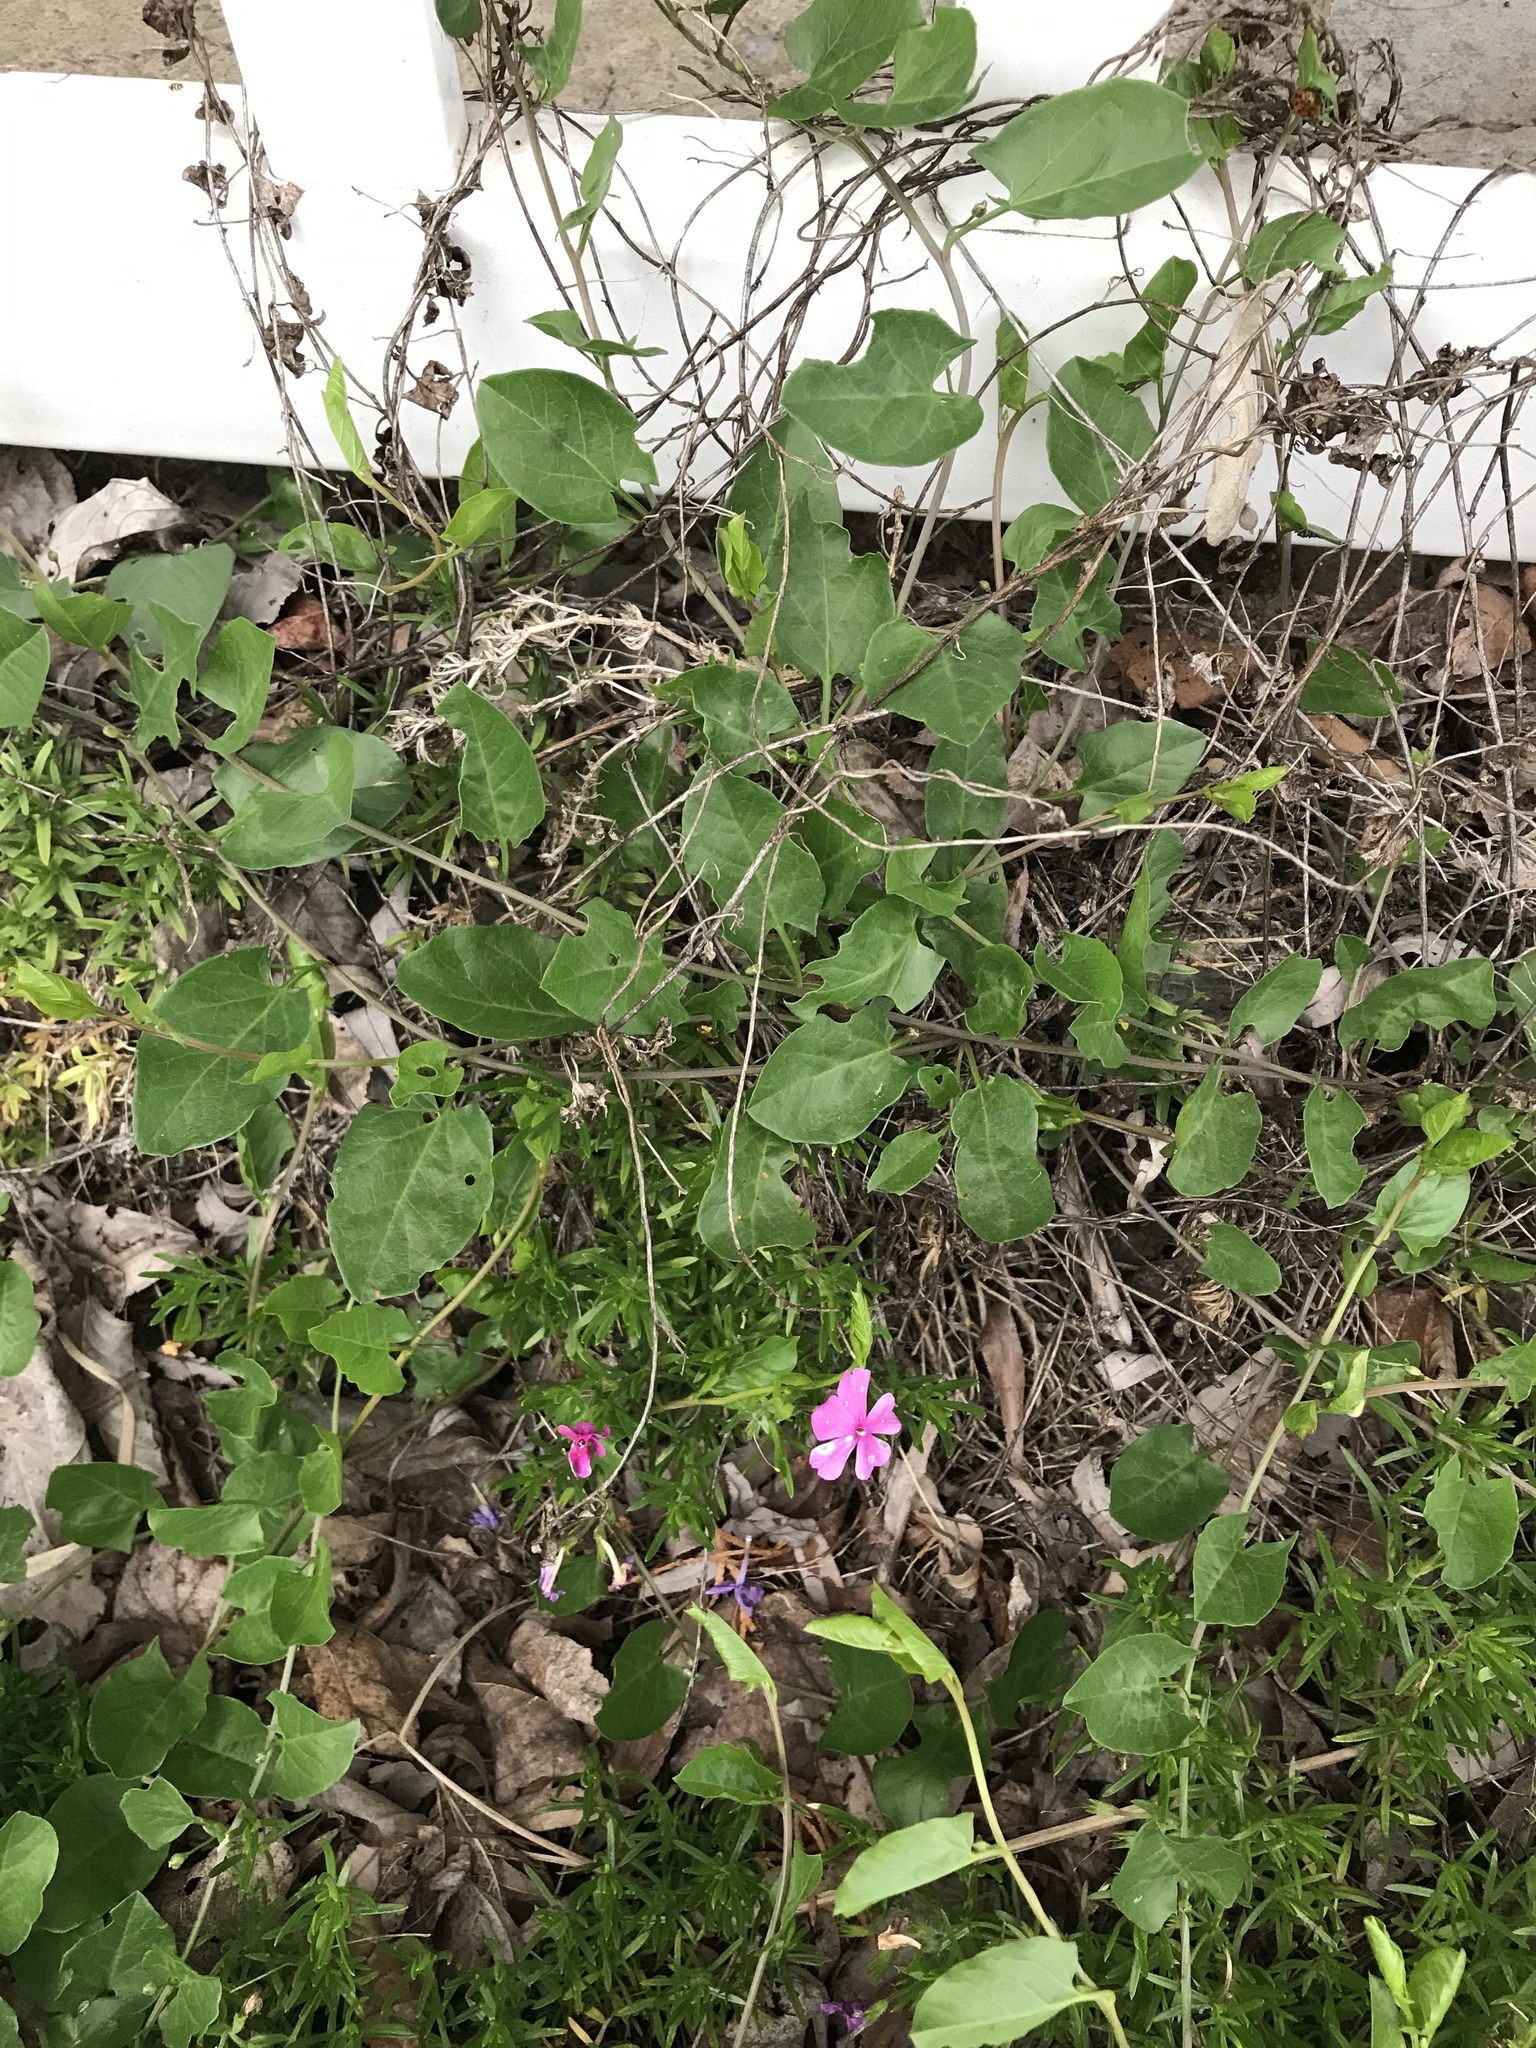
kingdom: Plantae
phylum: Tracheophyta
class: Magnoliopsida
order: Solanales
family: Convolvulaceae
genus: Convolvulus
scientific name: Convolvulus arvensis
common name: Field bindweed
